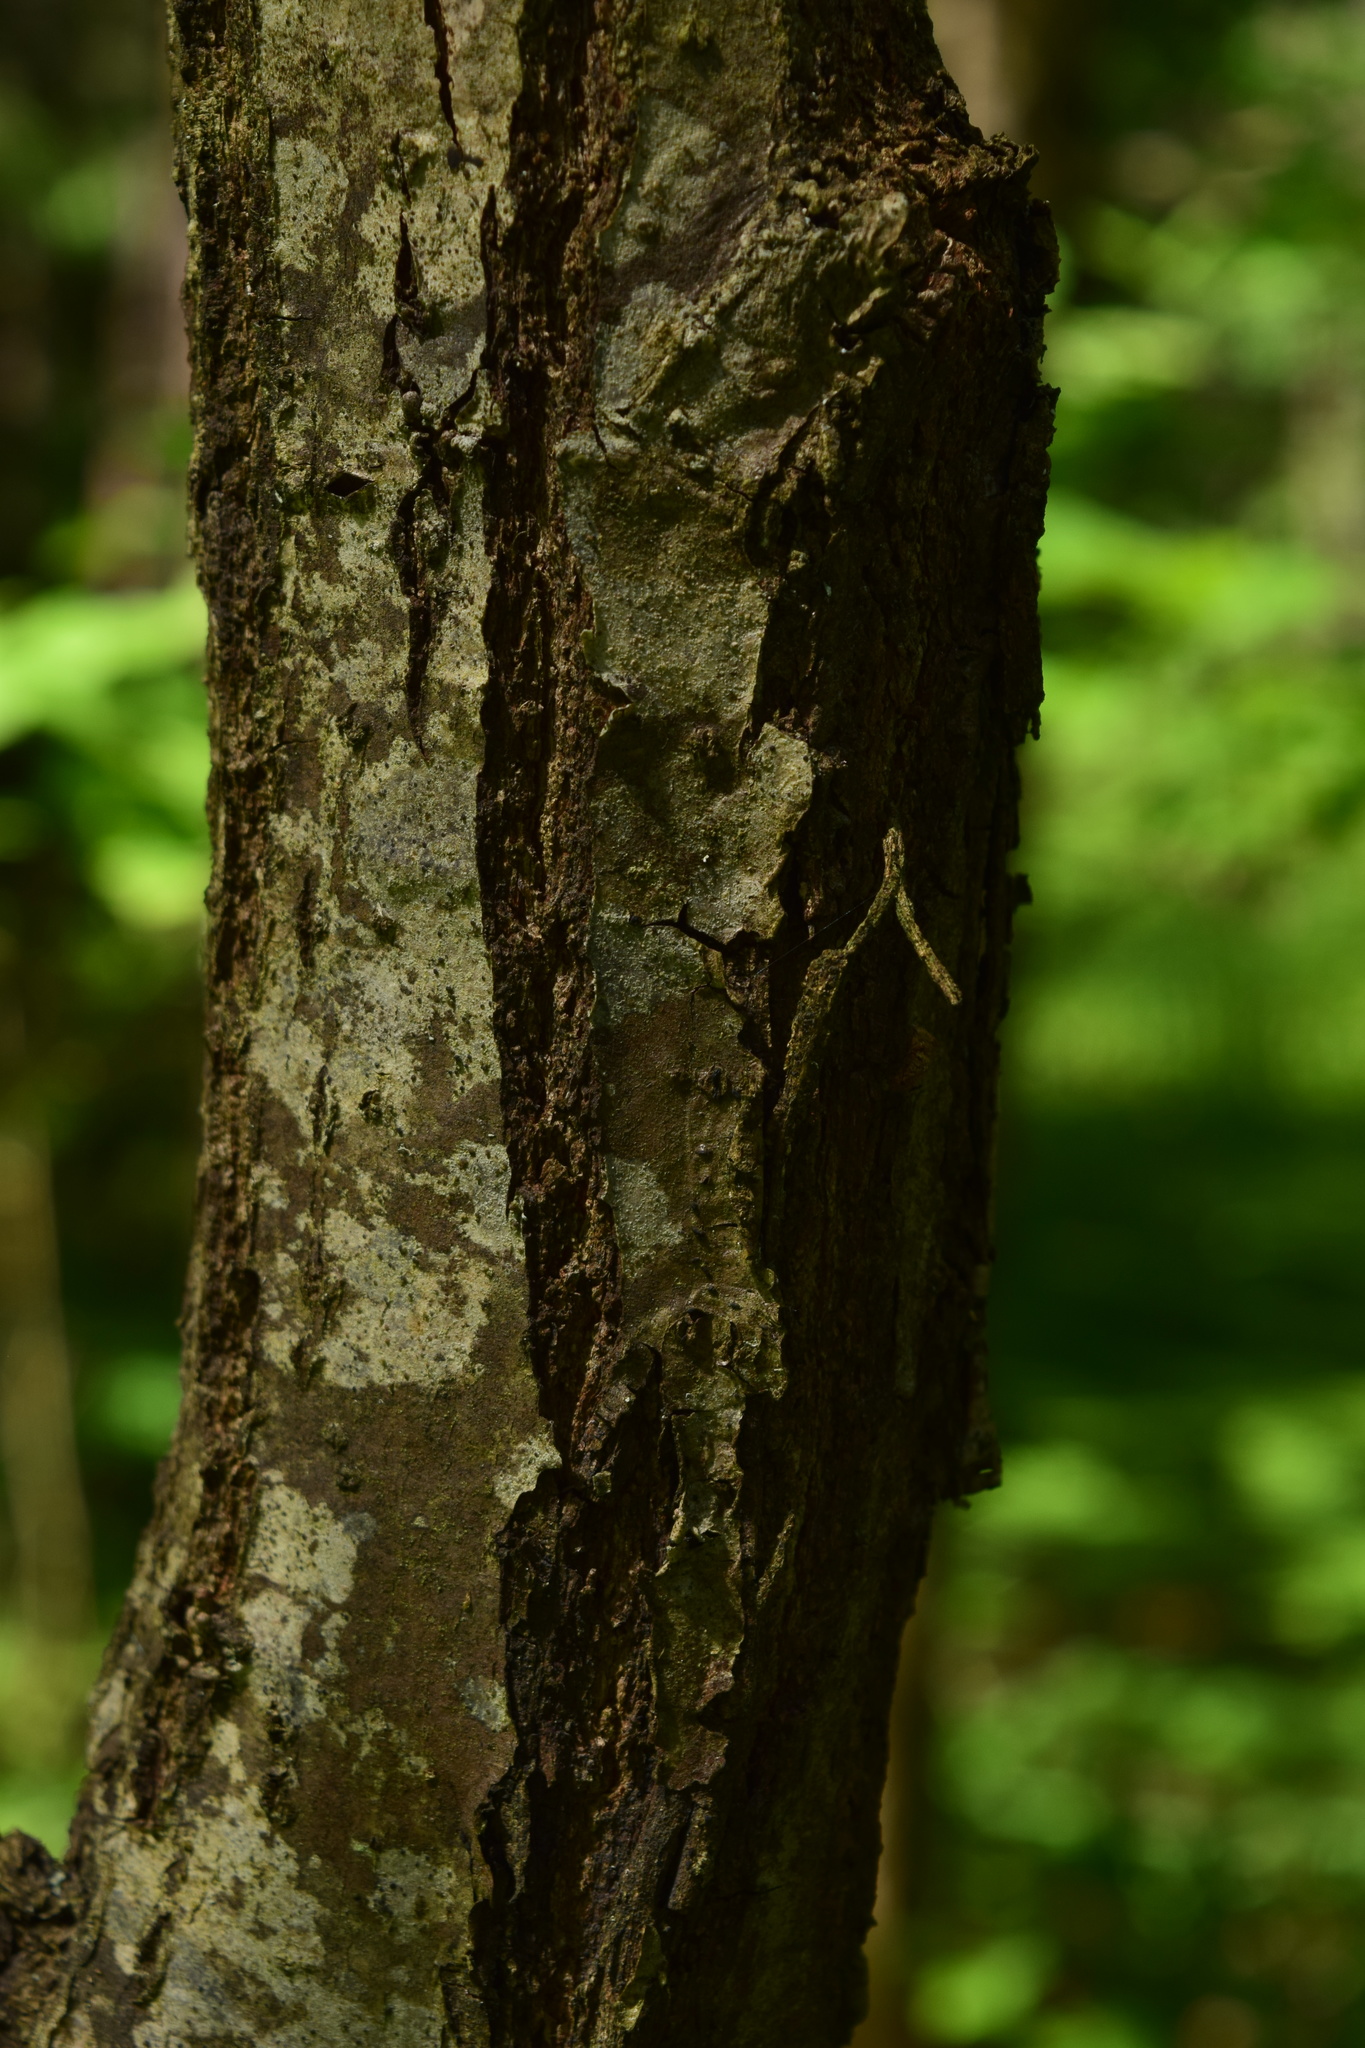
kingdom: Plantae
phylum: Tracheophyta
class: Magnoliopsida
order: Fagales
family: Fagaceae
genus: Quercus
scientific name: Quercus robur
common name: Pedunculate oak
